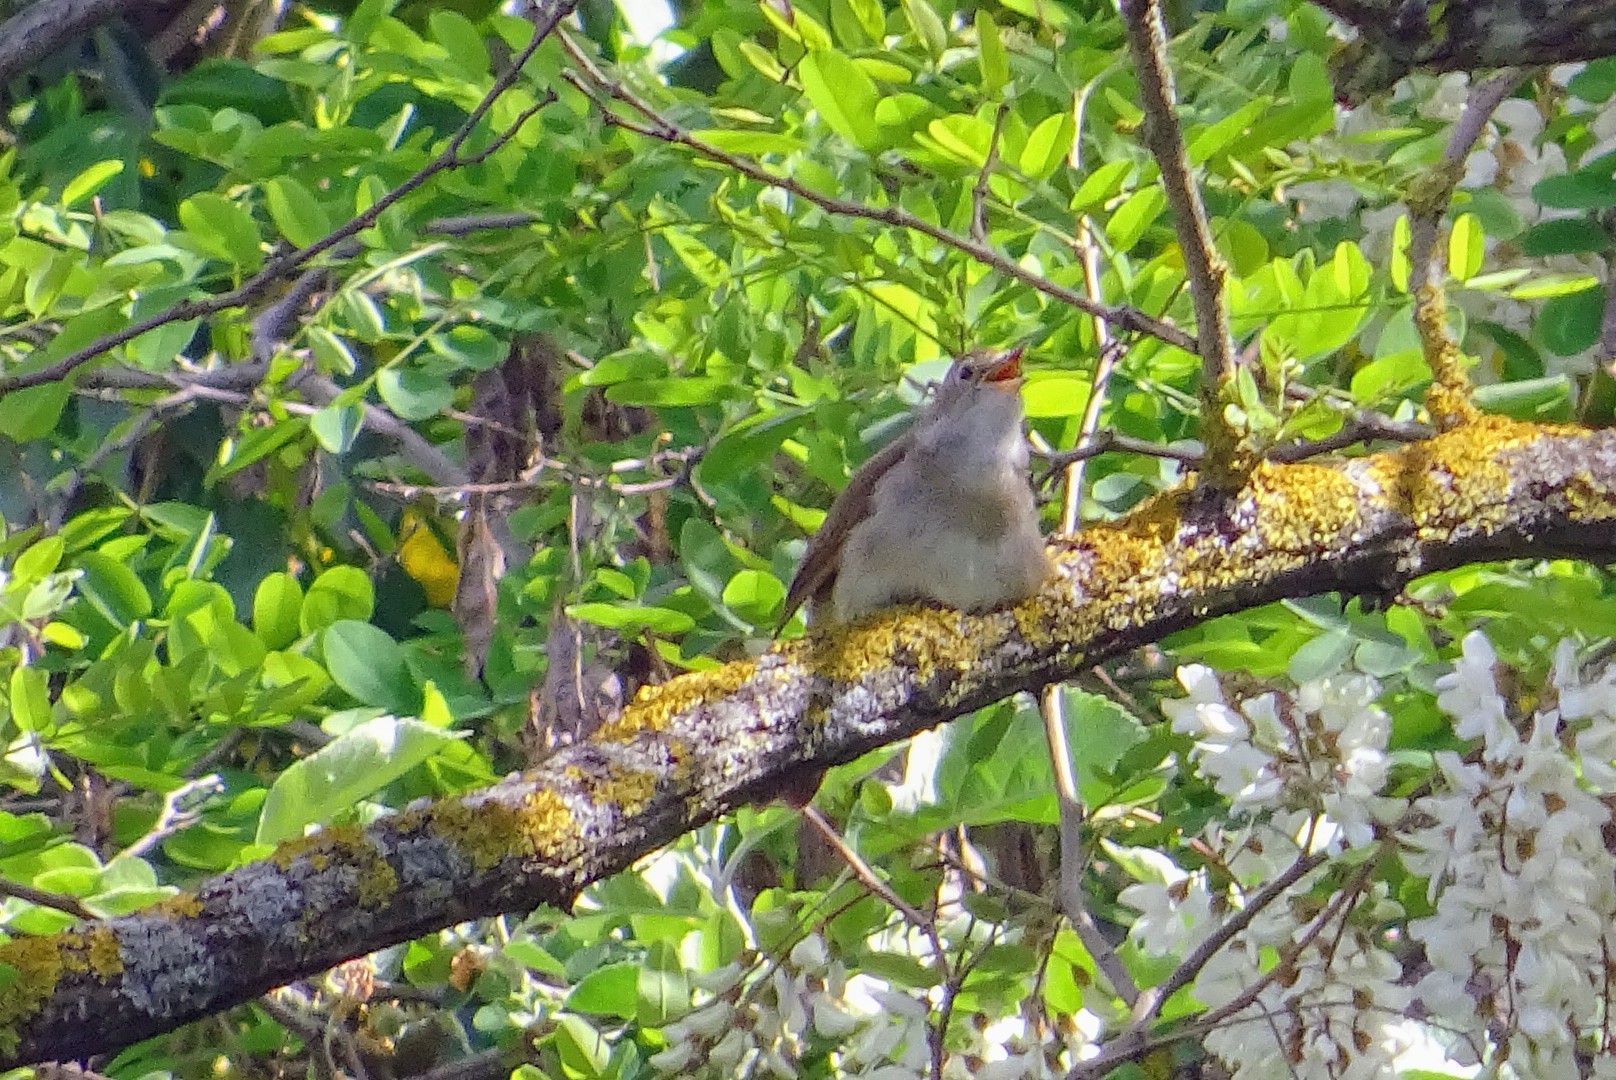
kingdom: Animalia
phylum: Chordata
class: Aves
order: Passeriformes
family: Muscicapidae
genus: Luscinia
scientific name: Luscinia megarhynchos
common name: Common nightingale
